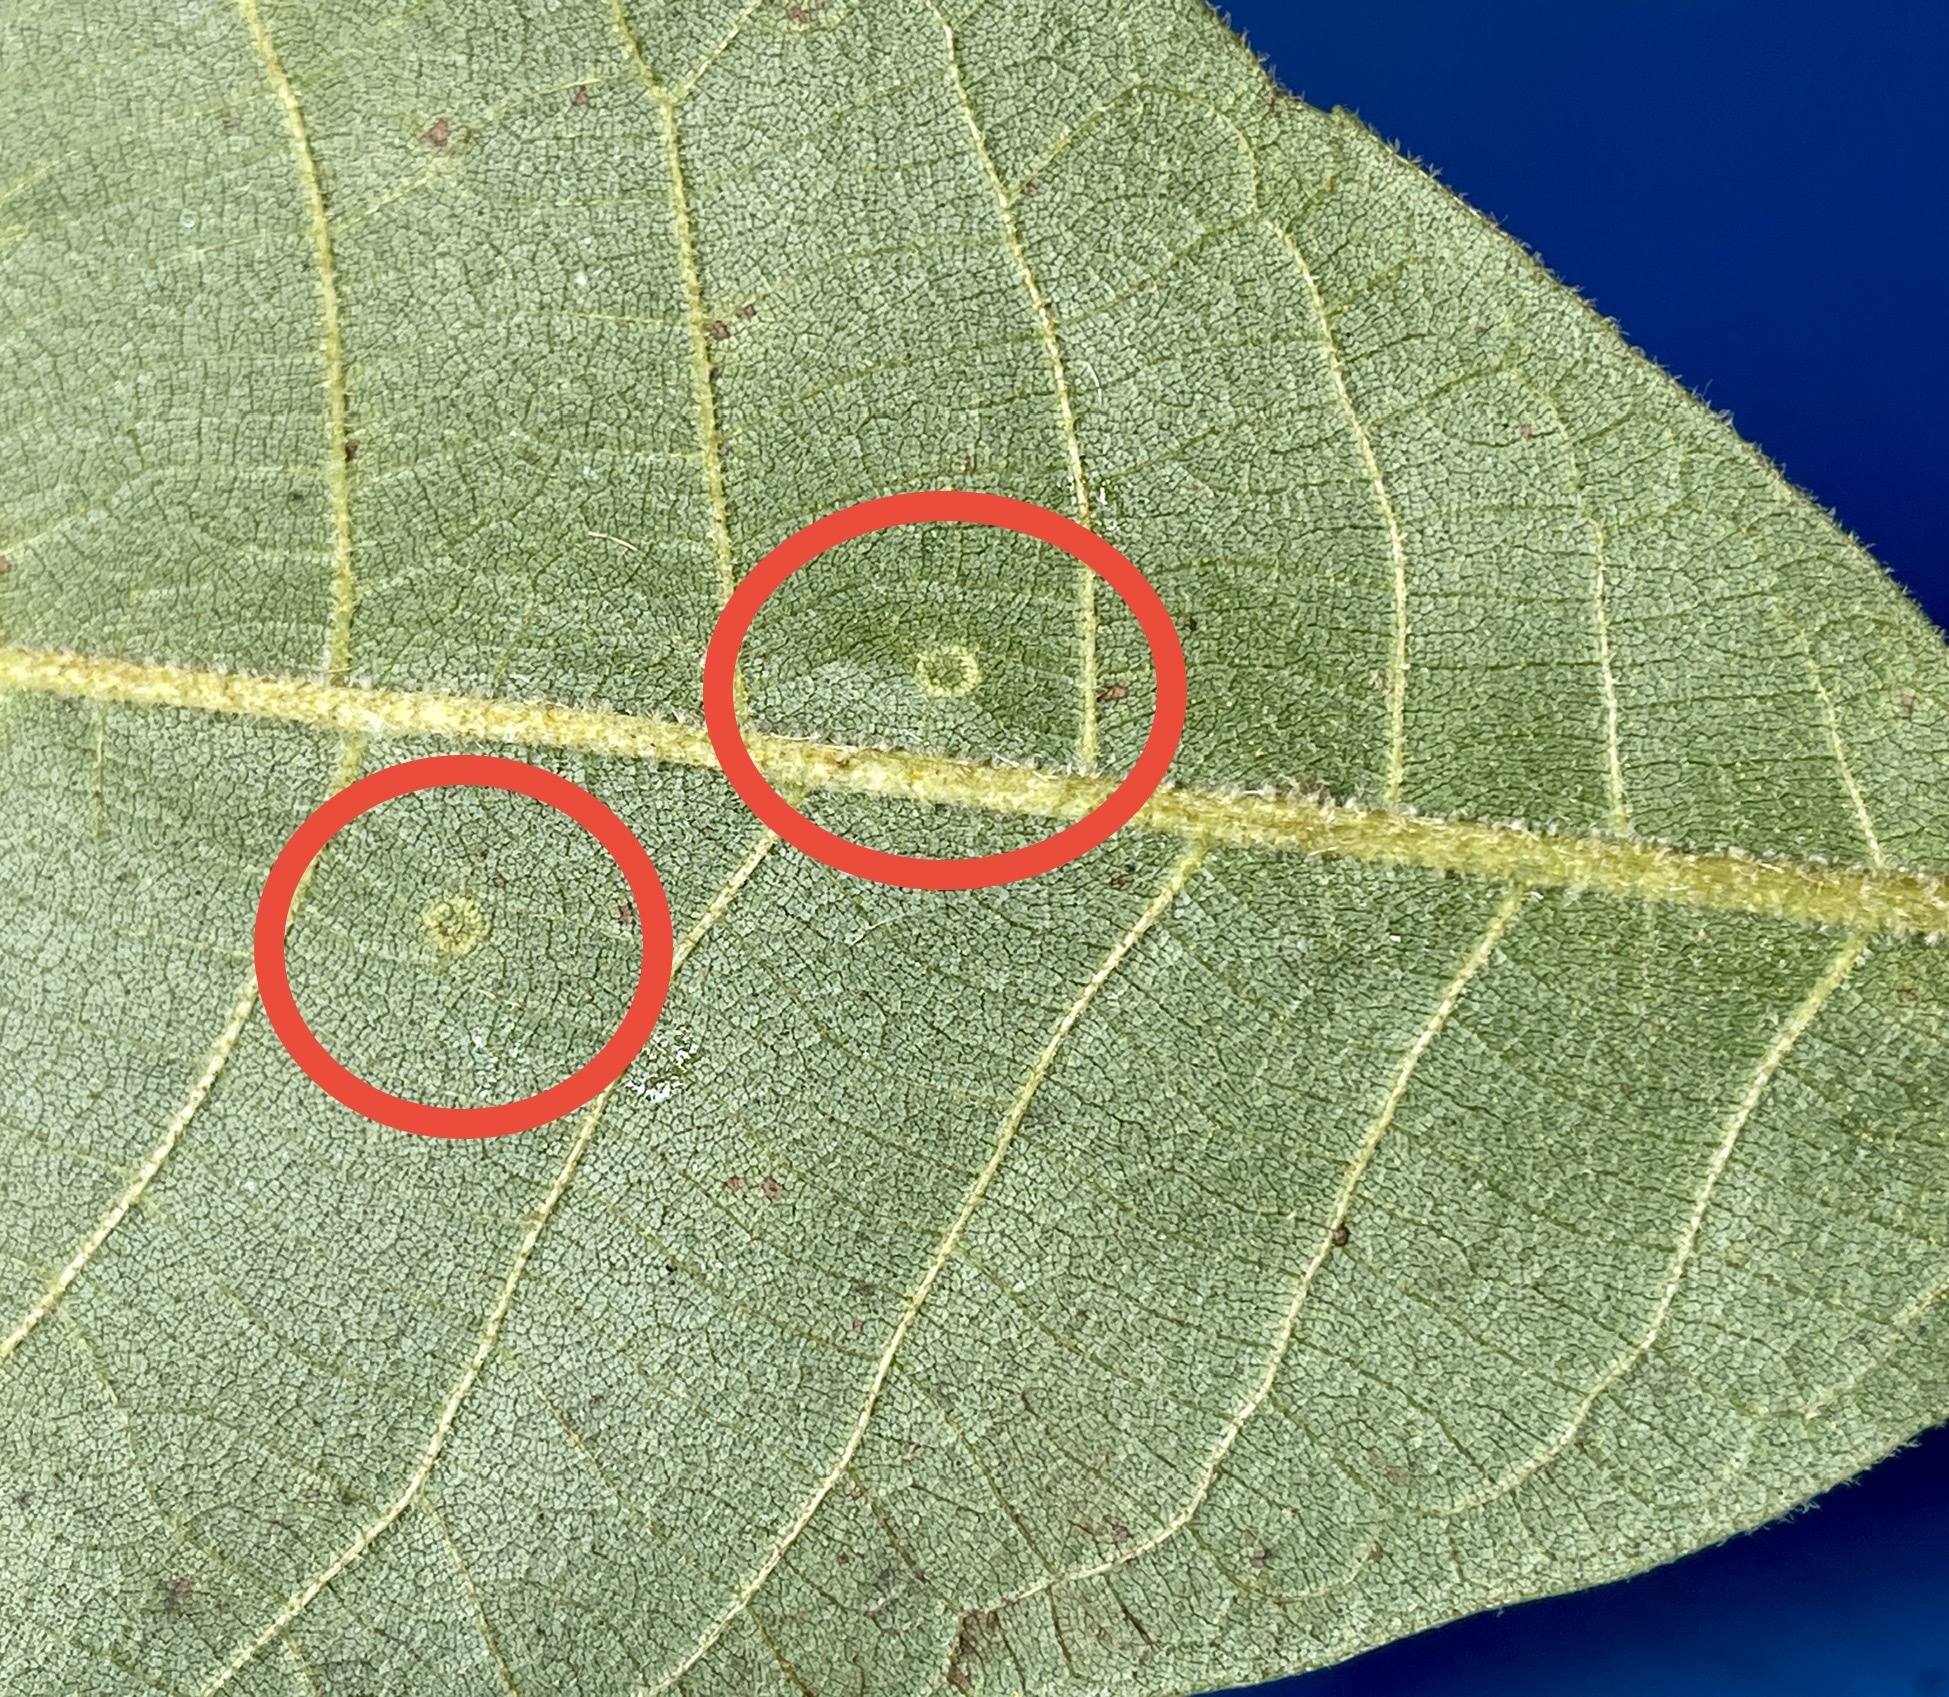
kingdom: Animalia
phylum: Arthropoda
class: Insecta
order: Diptera
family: Cecidomyiidae
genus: Gliaspilota
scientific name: Gliaspilota glutinosa
